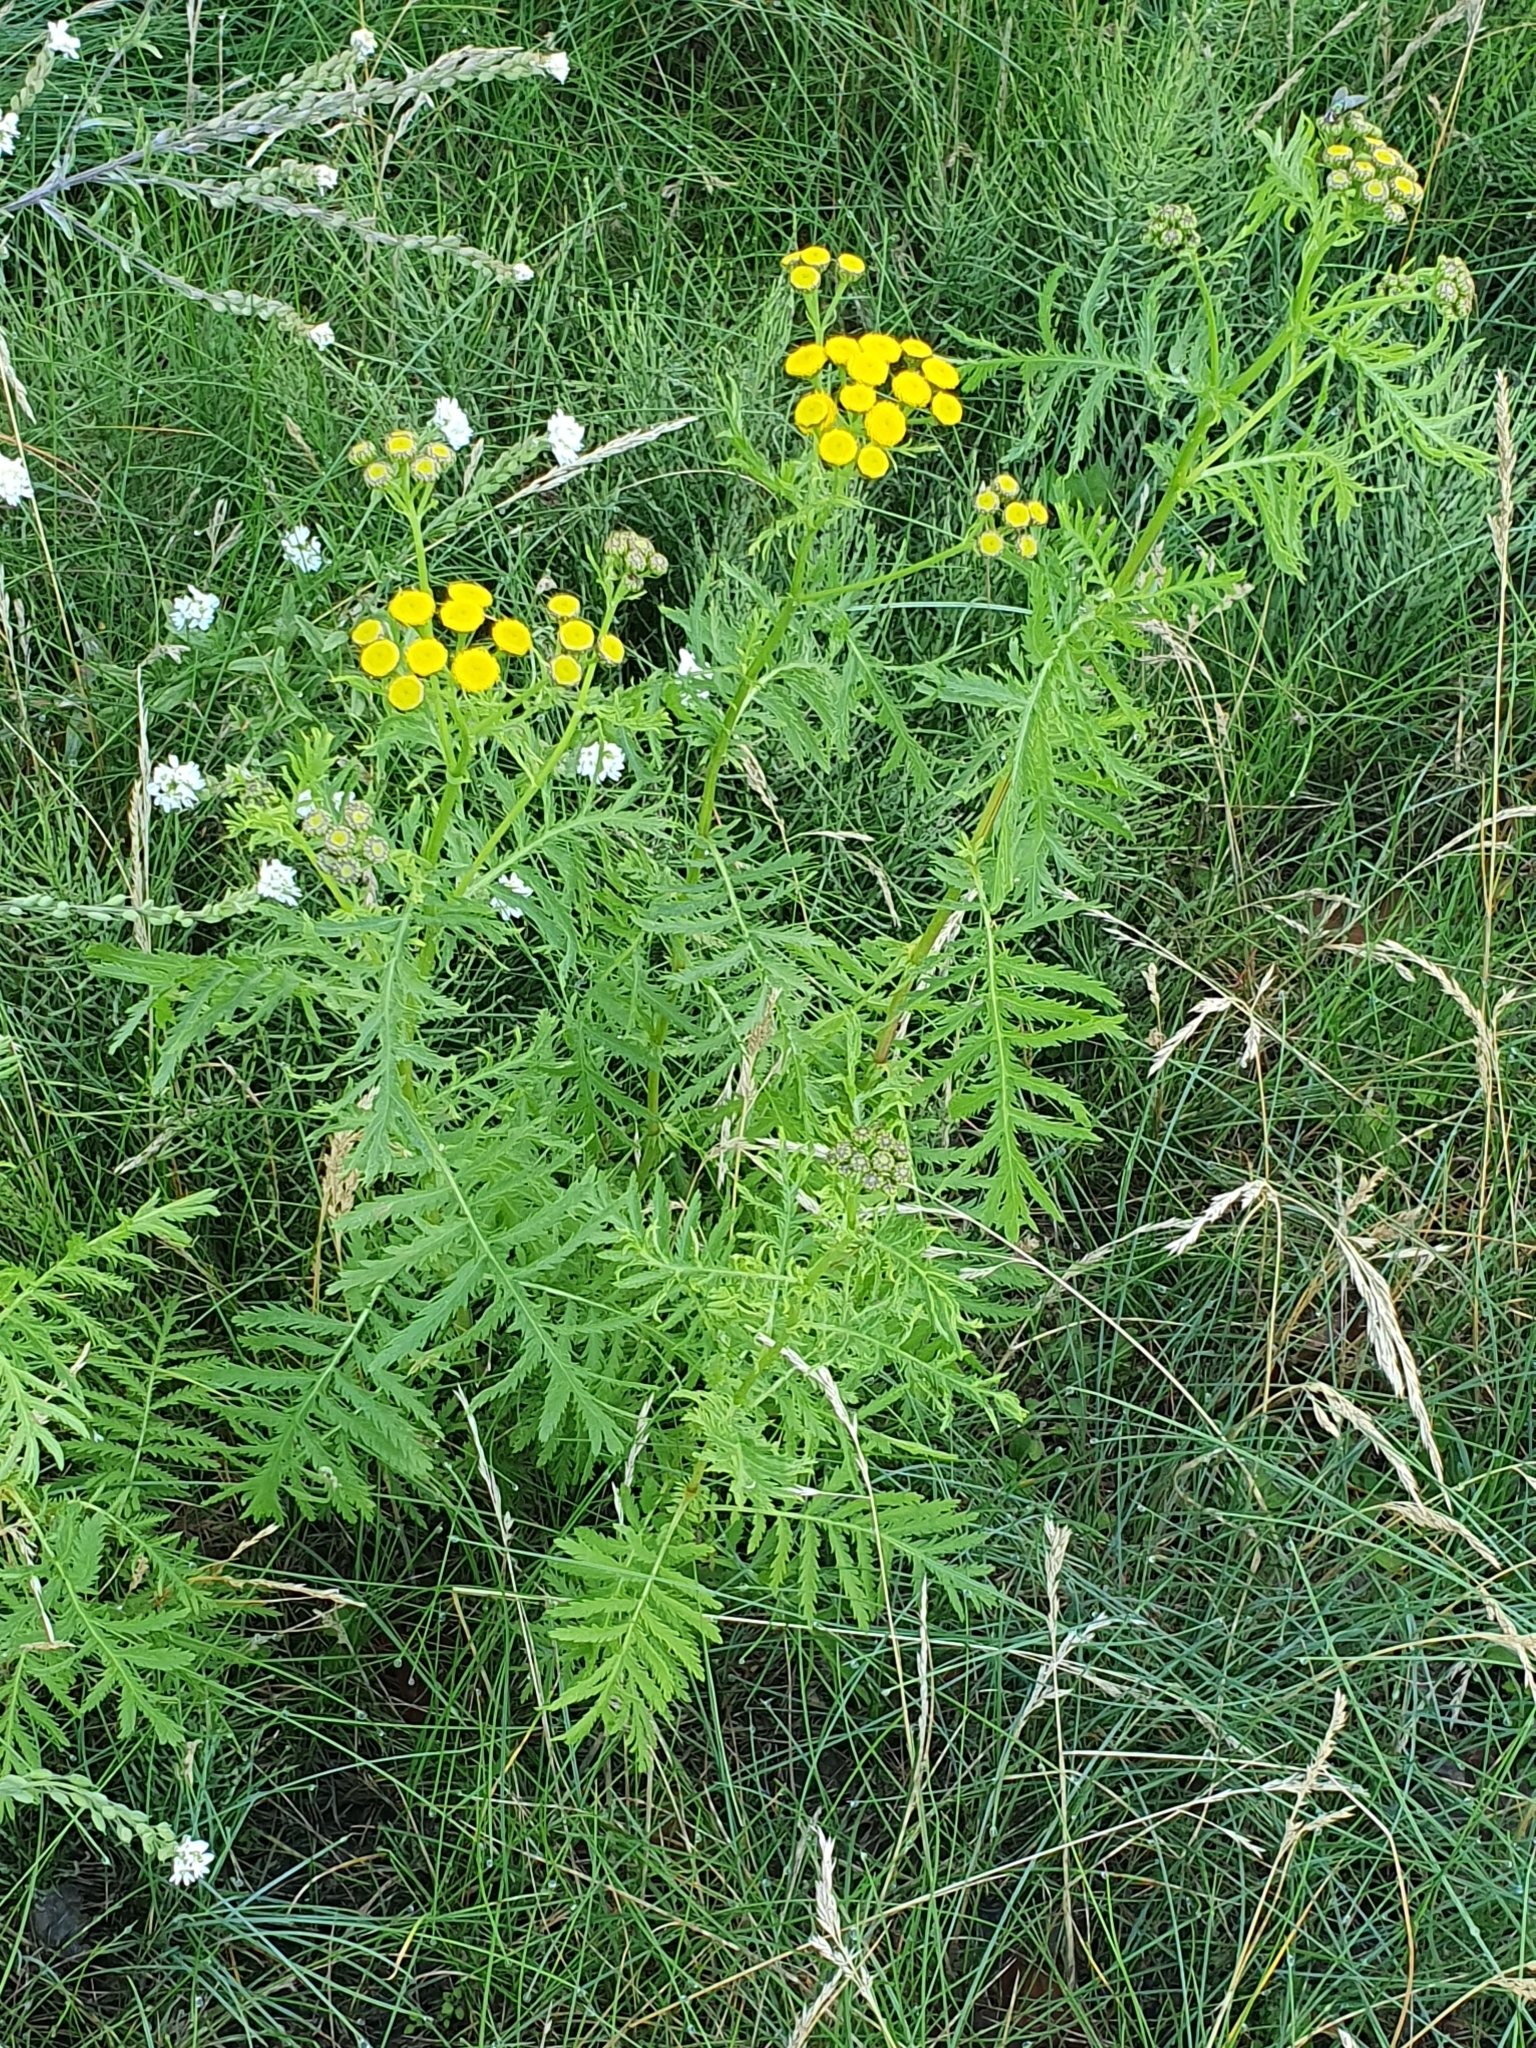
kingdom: Plantae
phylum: Tracheophyta
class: Magnoliopsida
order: Asterales
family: Asteraceae
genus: Tanacetum
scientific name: Tanacetum vulgare
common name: Common tansy
